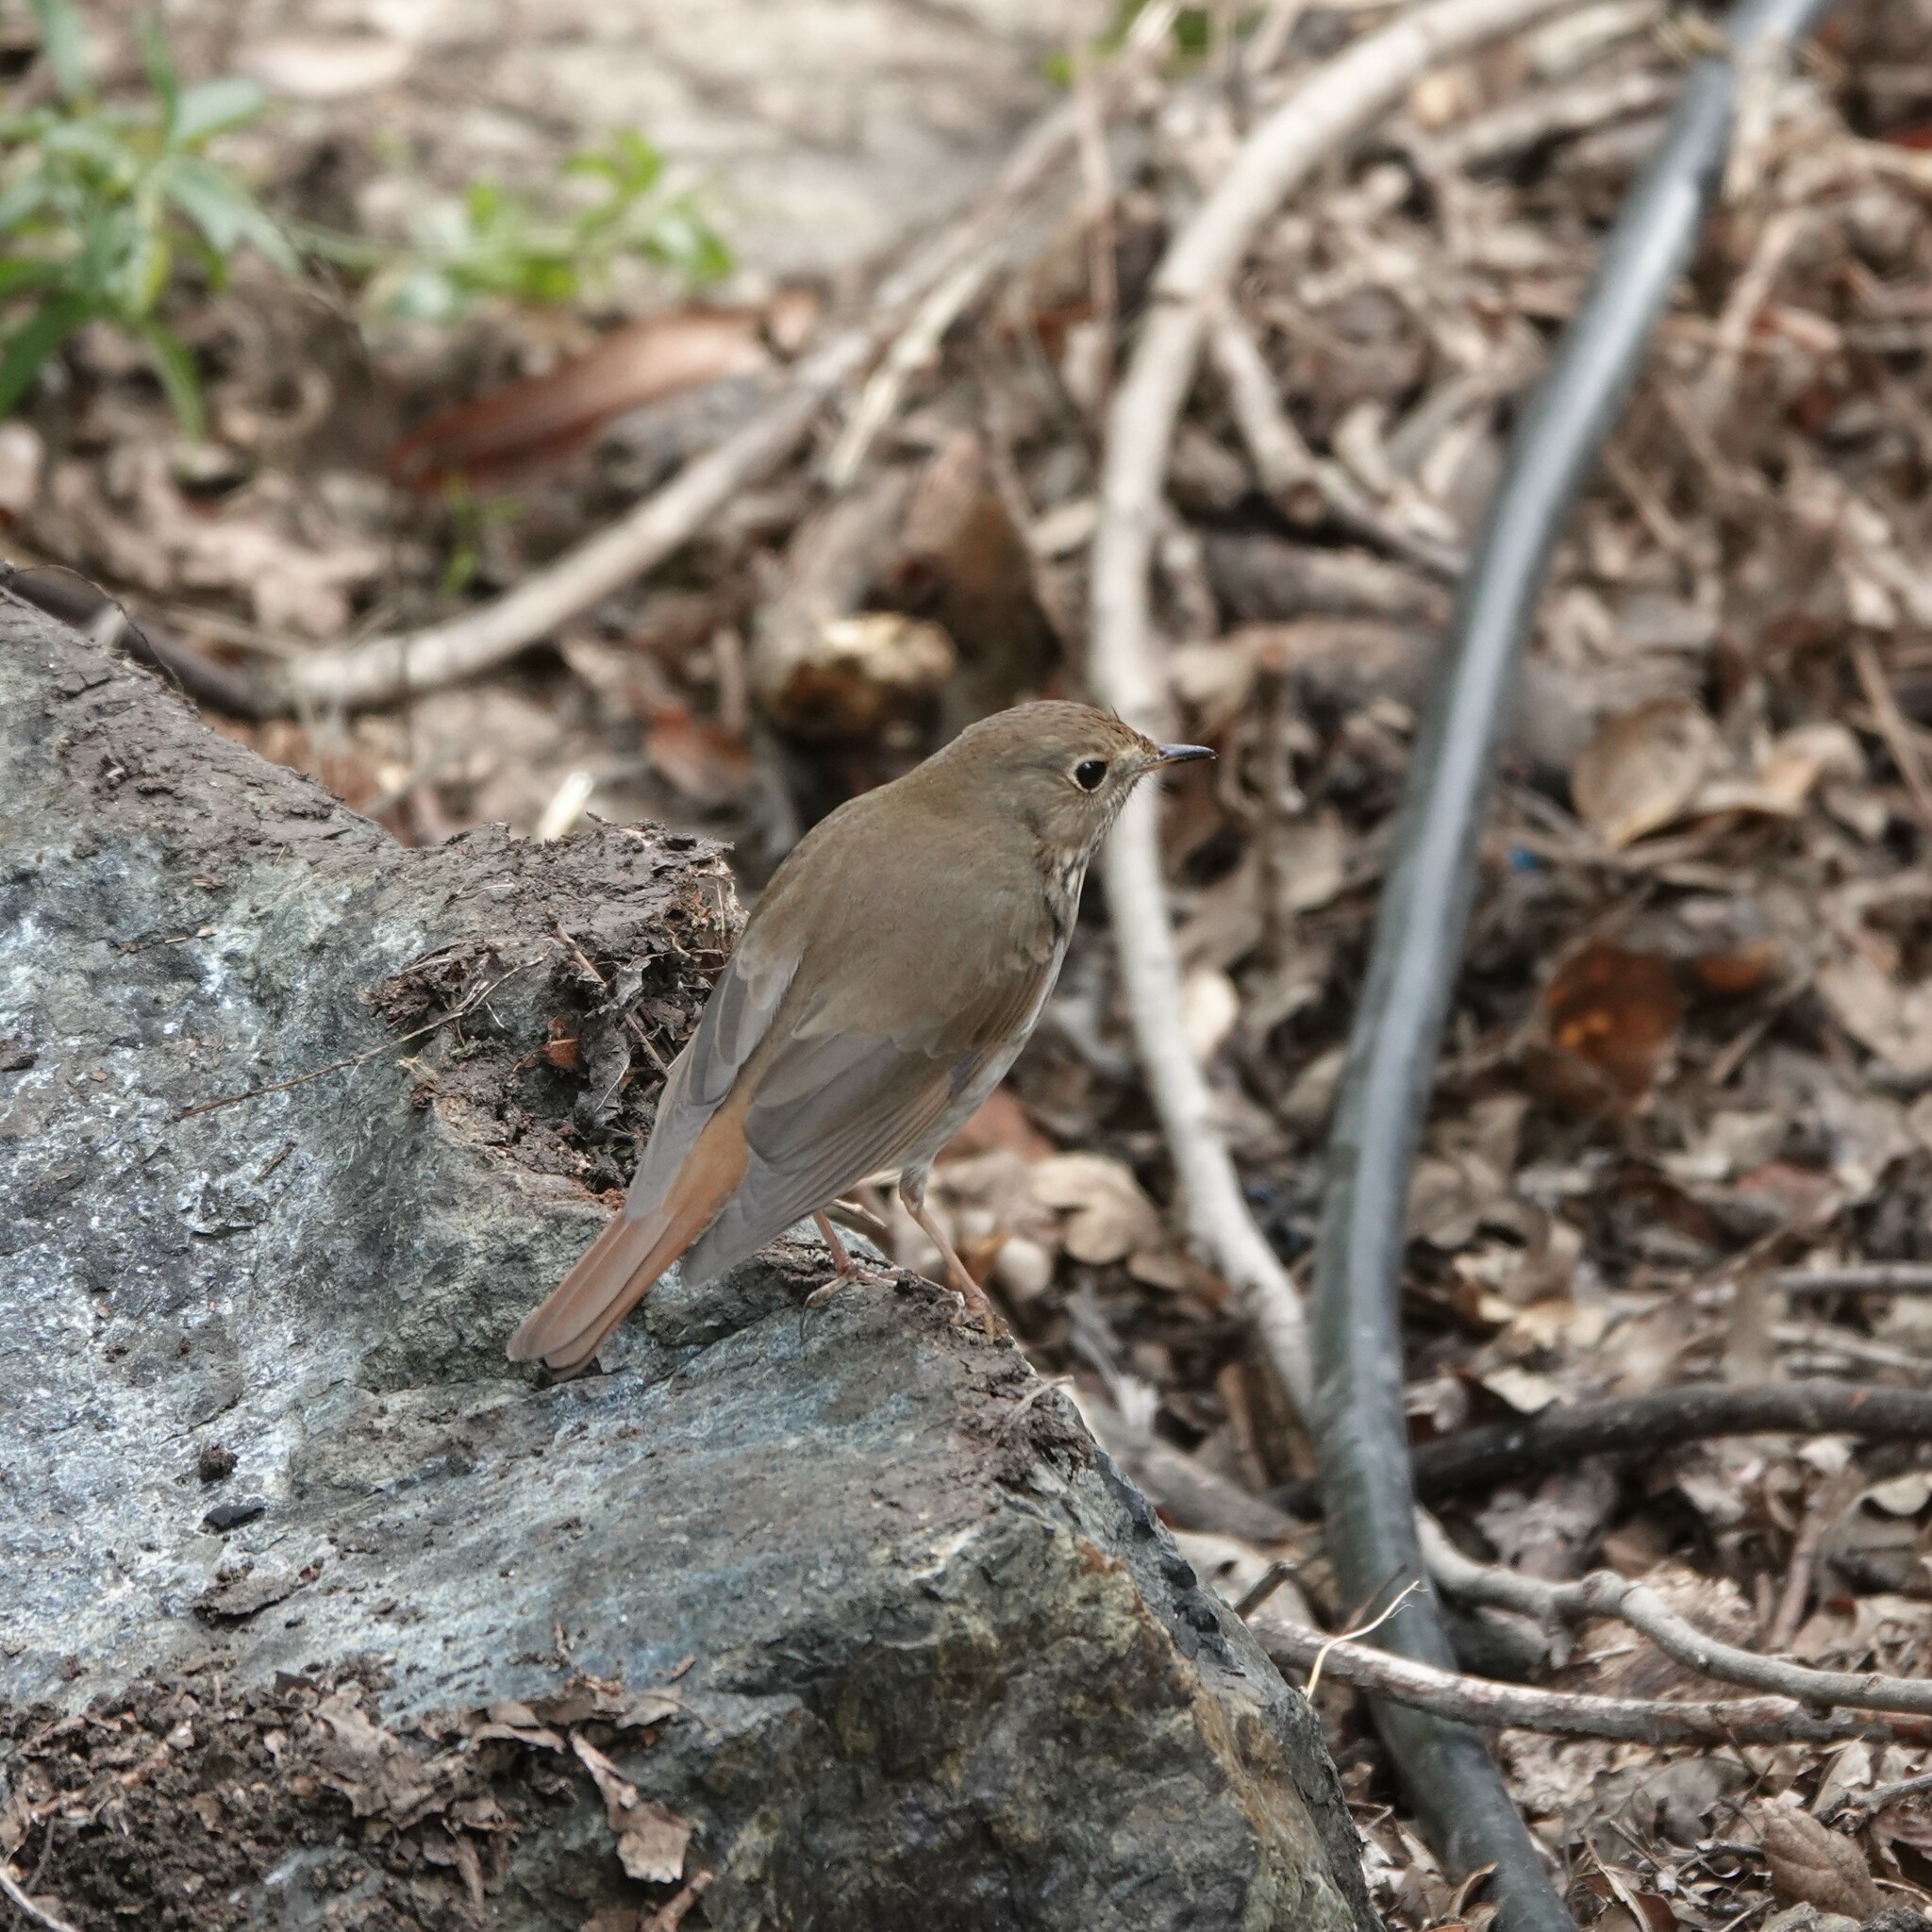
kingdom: Animalia
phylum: Chordata
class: Aves
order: Passeriformes
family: Turdidae
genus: Catharus
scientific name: Catharus guttatus
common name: Hermit thrush
